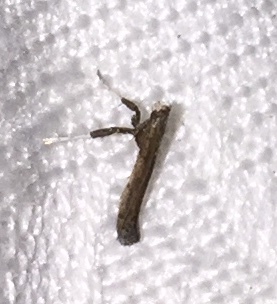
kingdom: Animalia
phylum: Arthropoda
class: Insecta
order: Lepidoptera
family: Gracillariidae
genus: Caloptilia
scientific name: Caloptilia rhoifoliella
